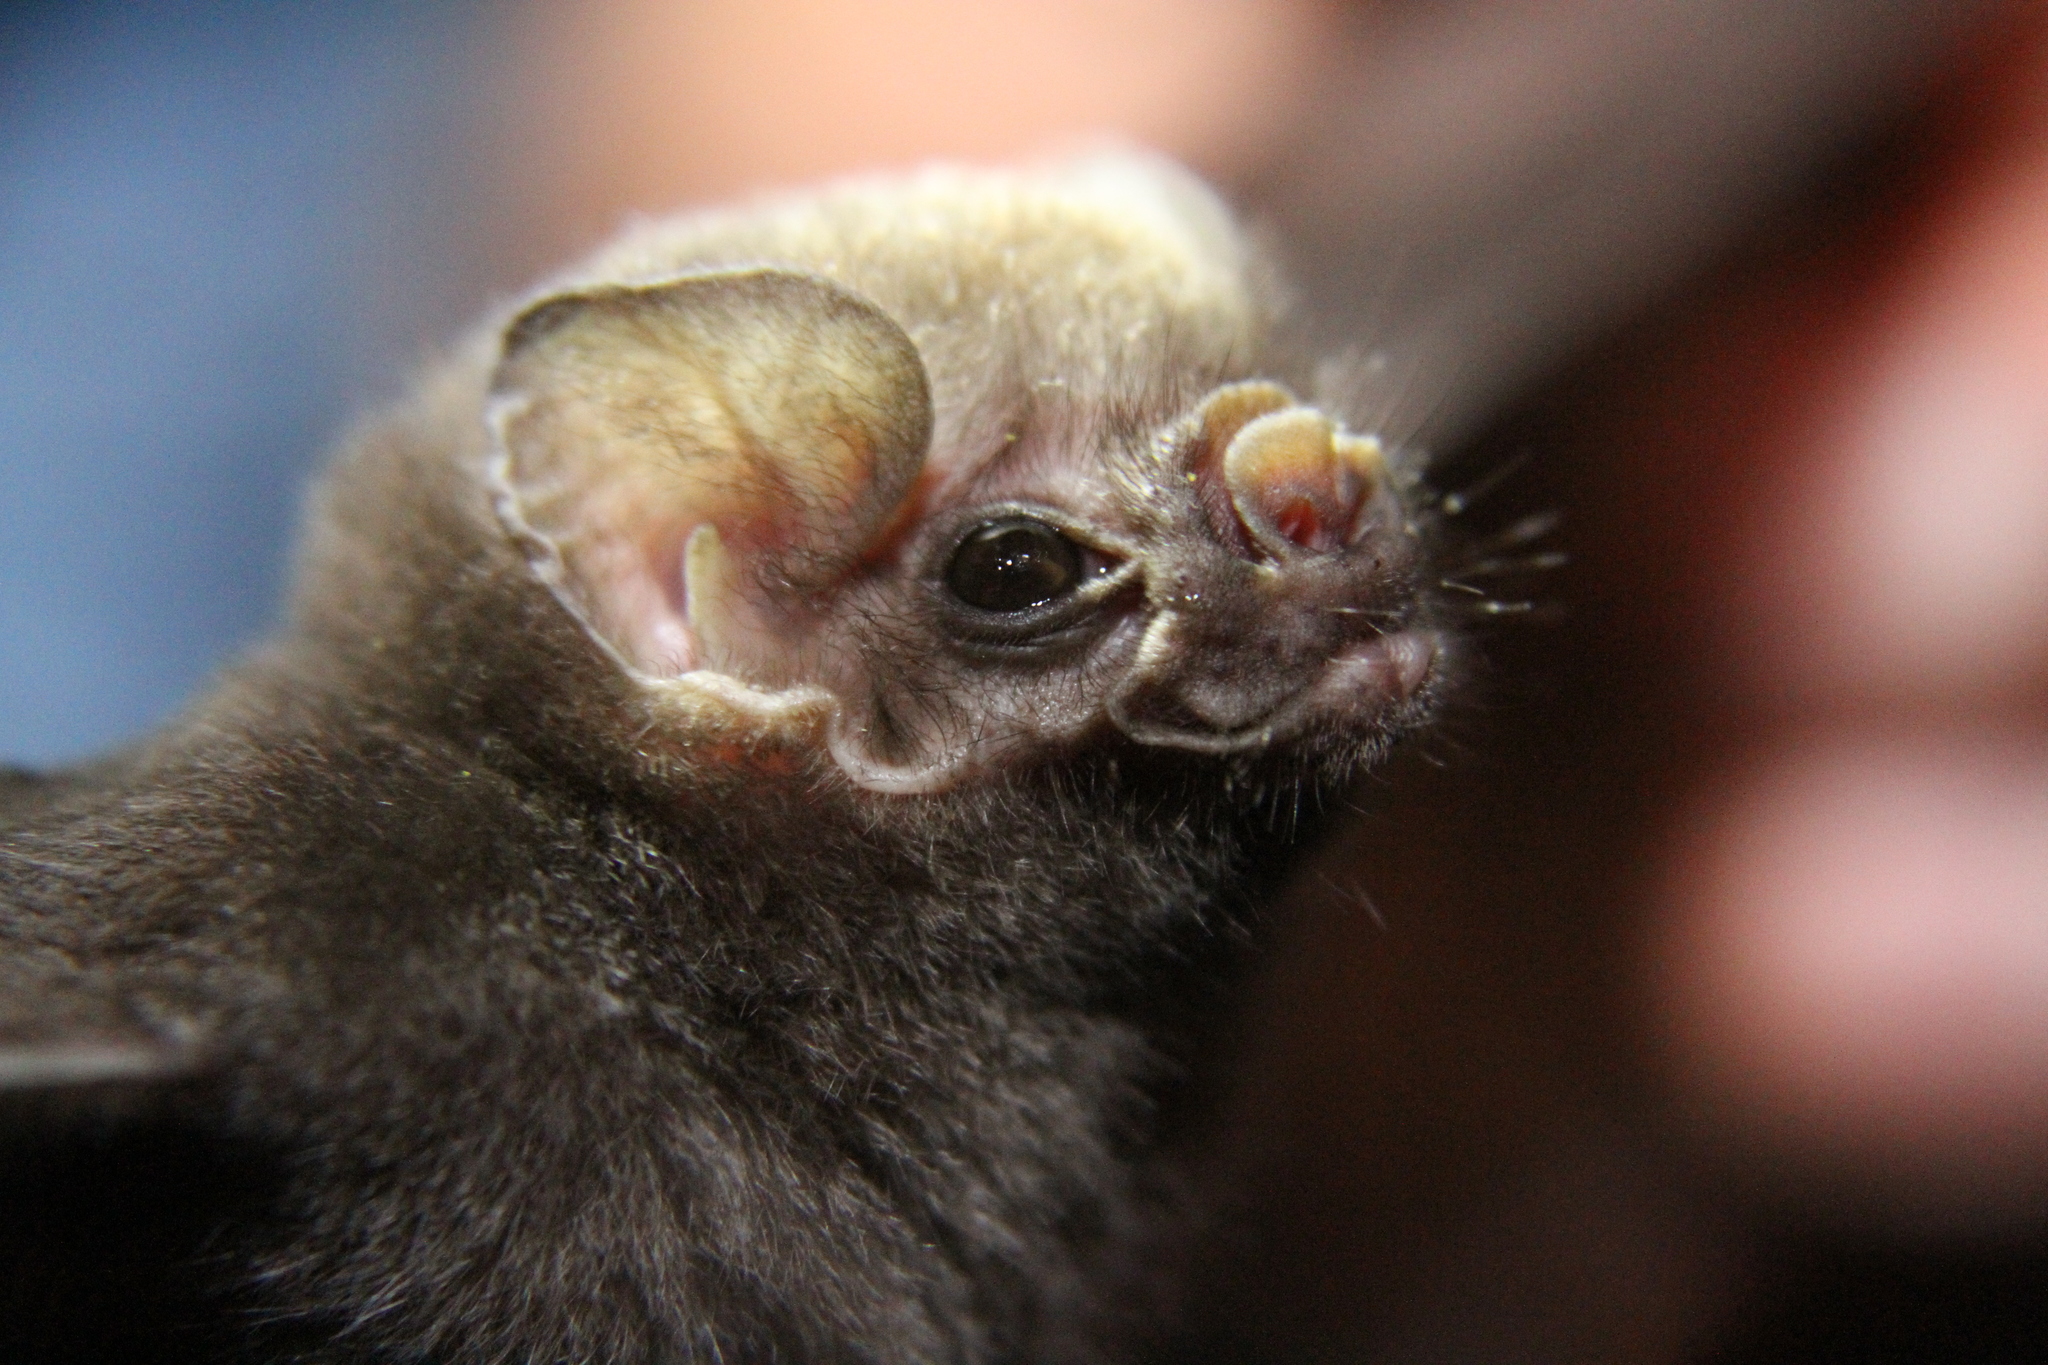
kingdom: Animalia
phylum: Chordata
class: Mammalia
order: Chiroptera
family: Phyllostomidae
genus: Diphylla
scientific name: Diphylla ecaudata
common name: Hairy-legged vampire bat
